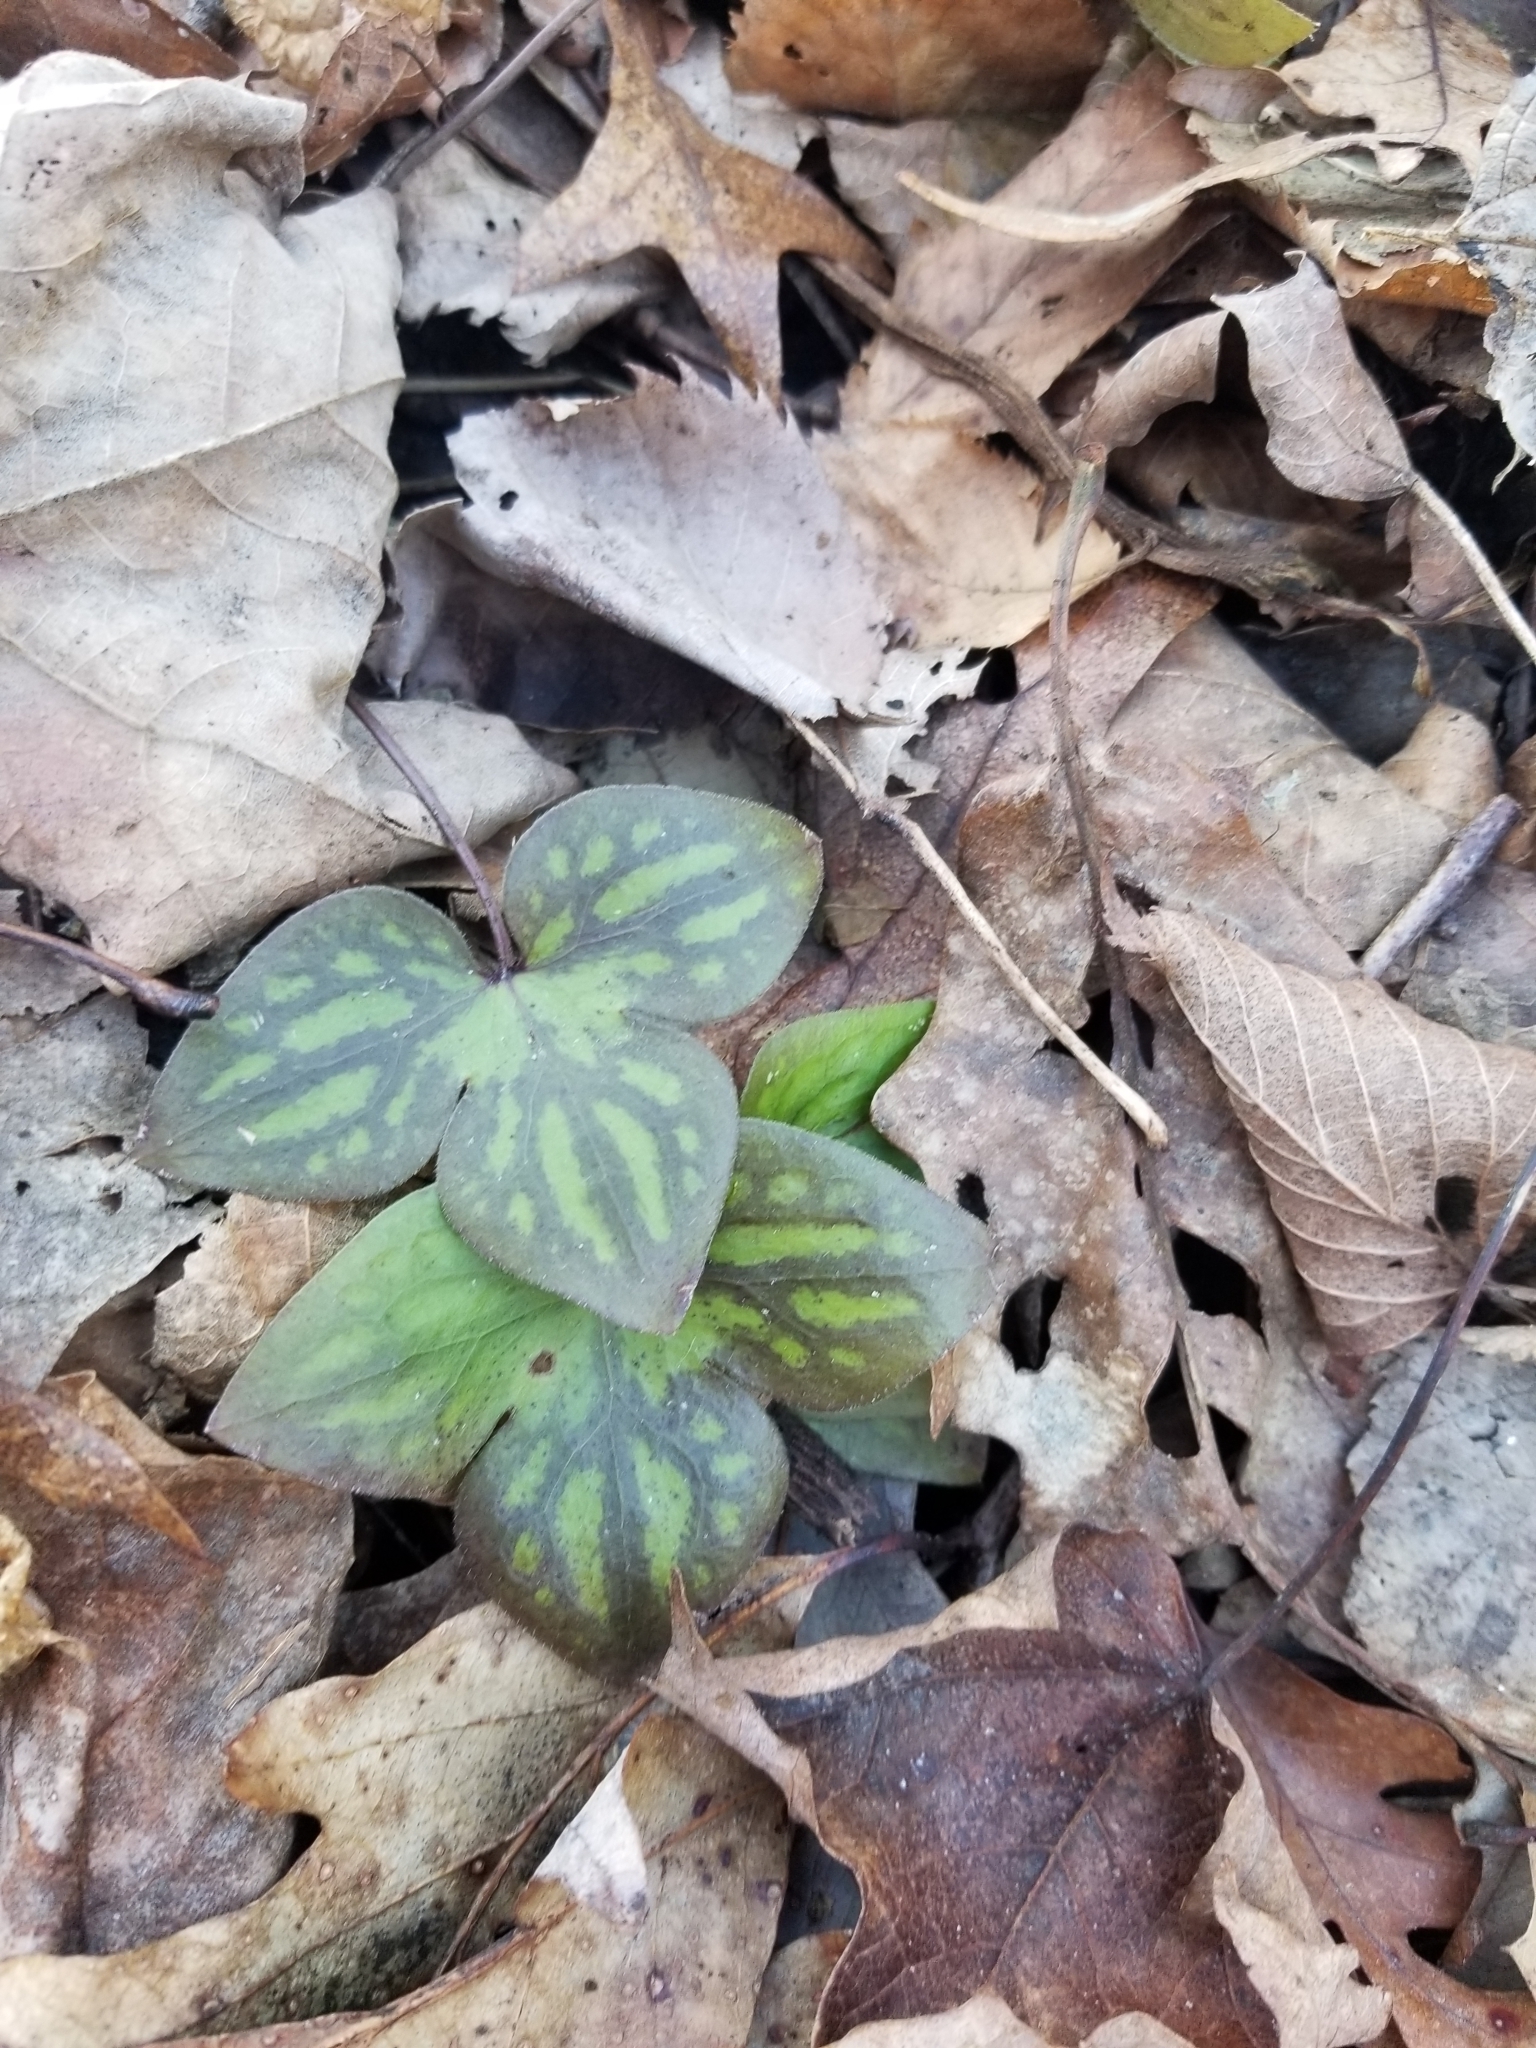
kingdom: Plantae
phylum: Tracheophyta
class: Magnoliopsida
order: Ranunculales
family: Ranunculaceae
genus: Hepatica
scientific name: Hepatica acutiloba
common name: Sharp-lobed hepatica
